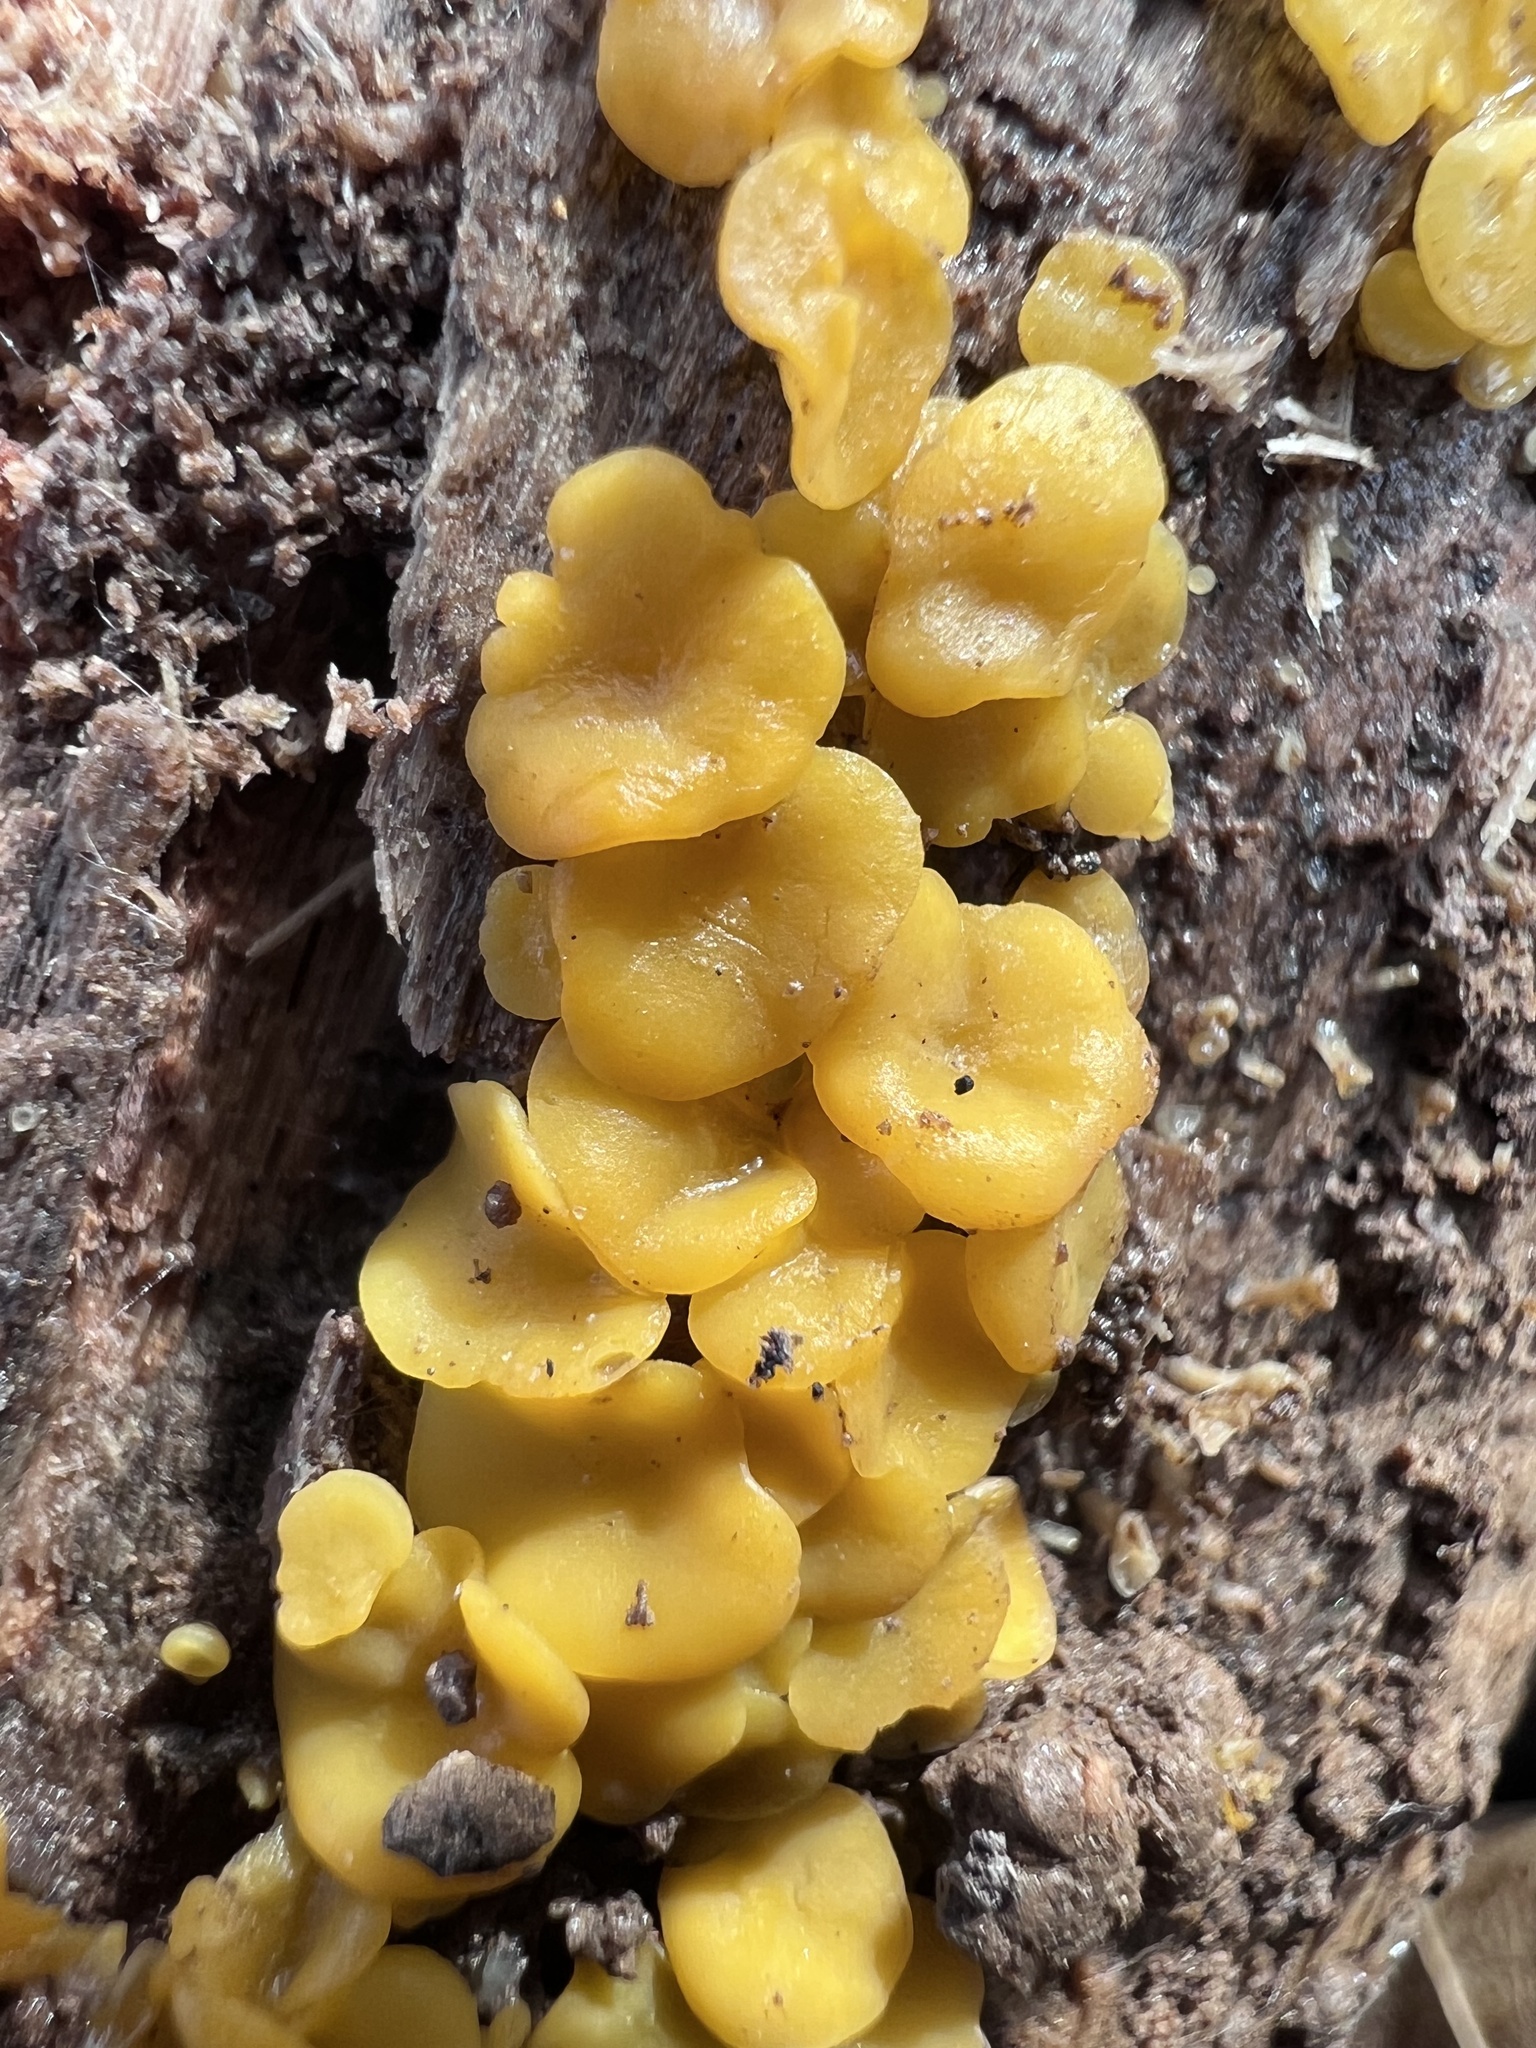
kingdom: Fungi
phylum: Ascomycota
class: Leotiomycetes
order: Helotiales
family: Pezizellaceae
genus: Calycina
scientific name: Calycina citrina
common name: Yellow fairy cups
